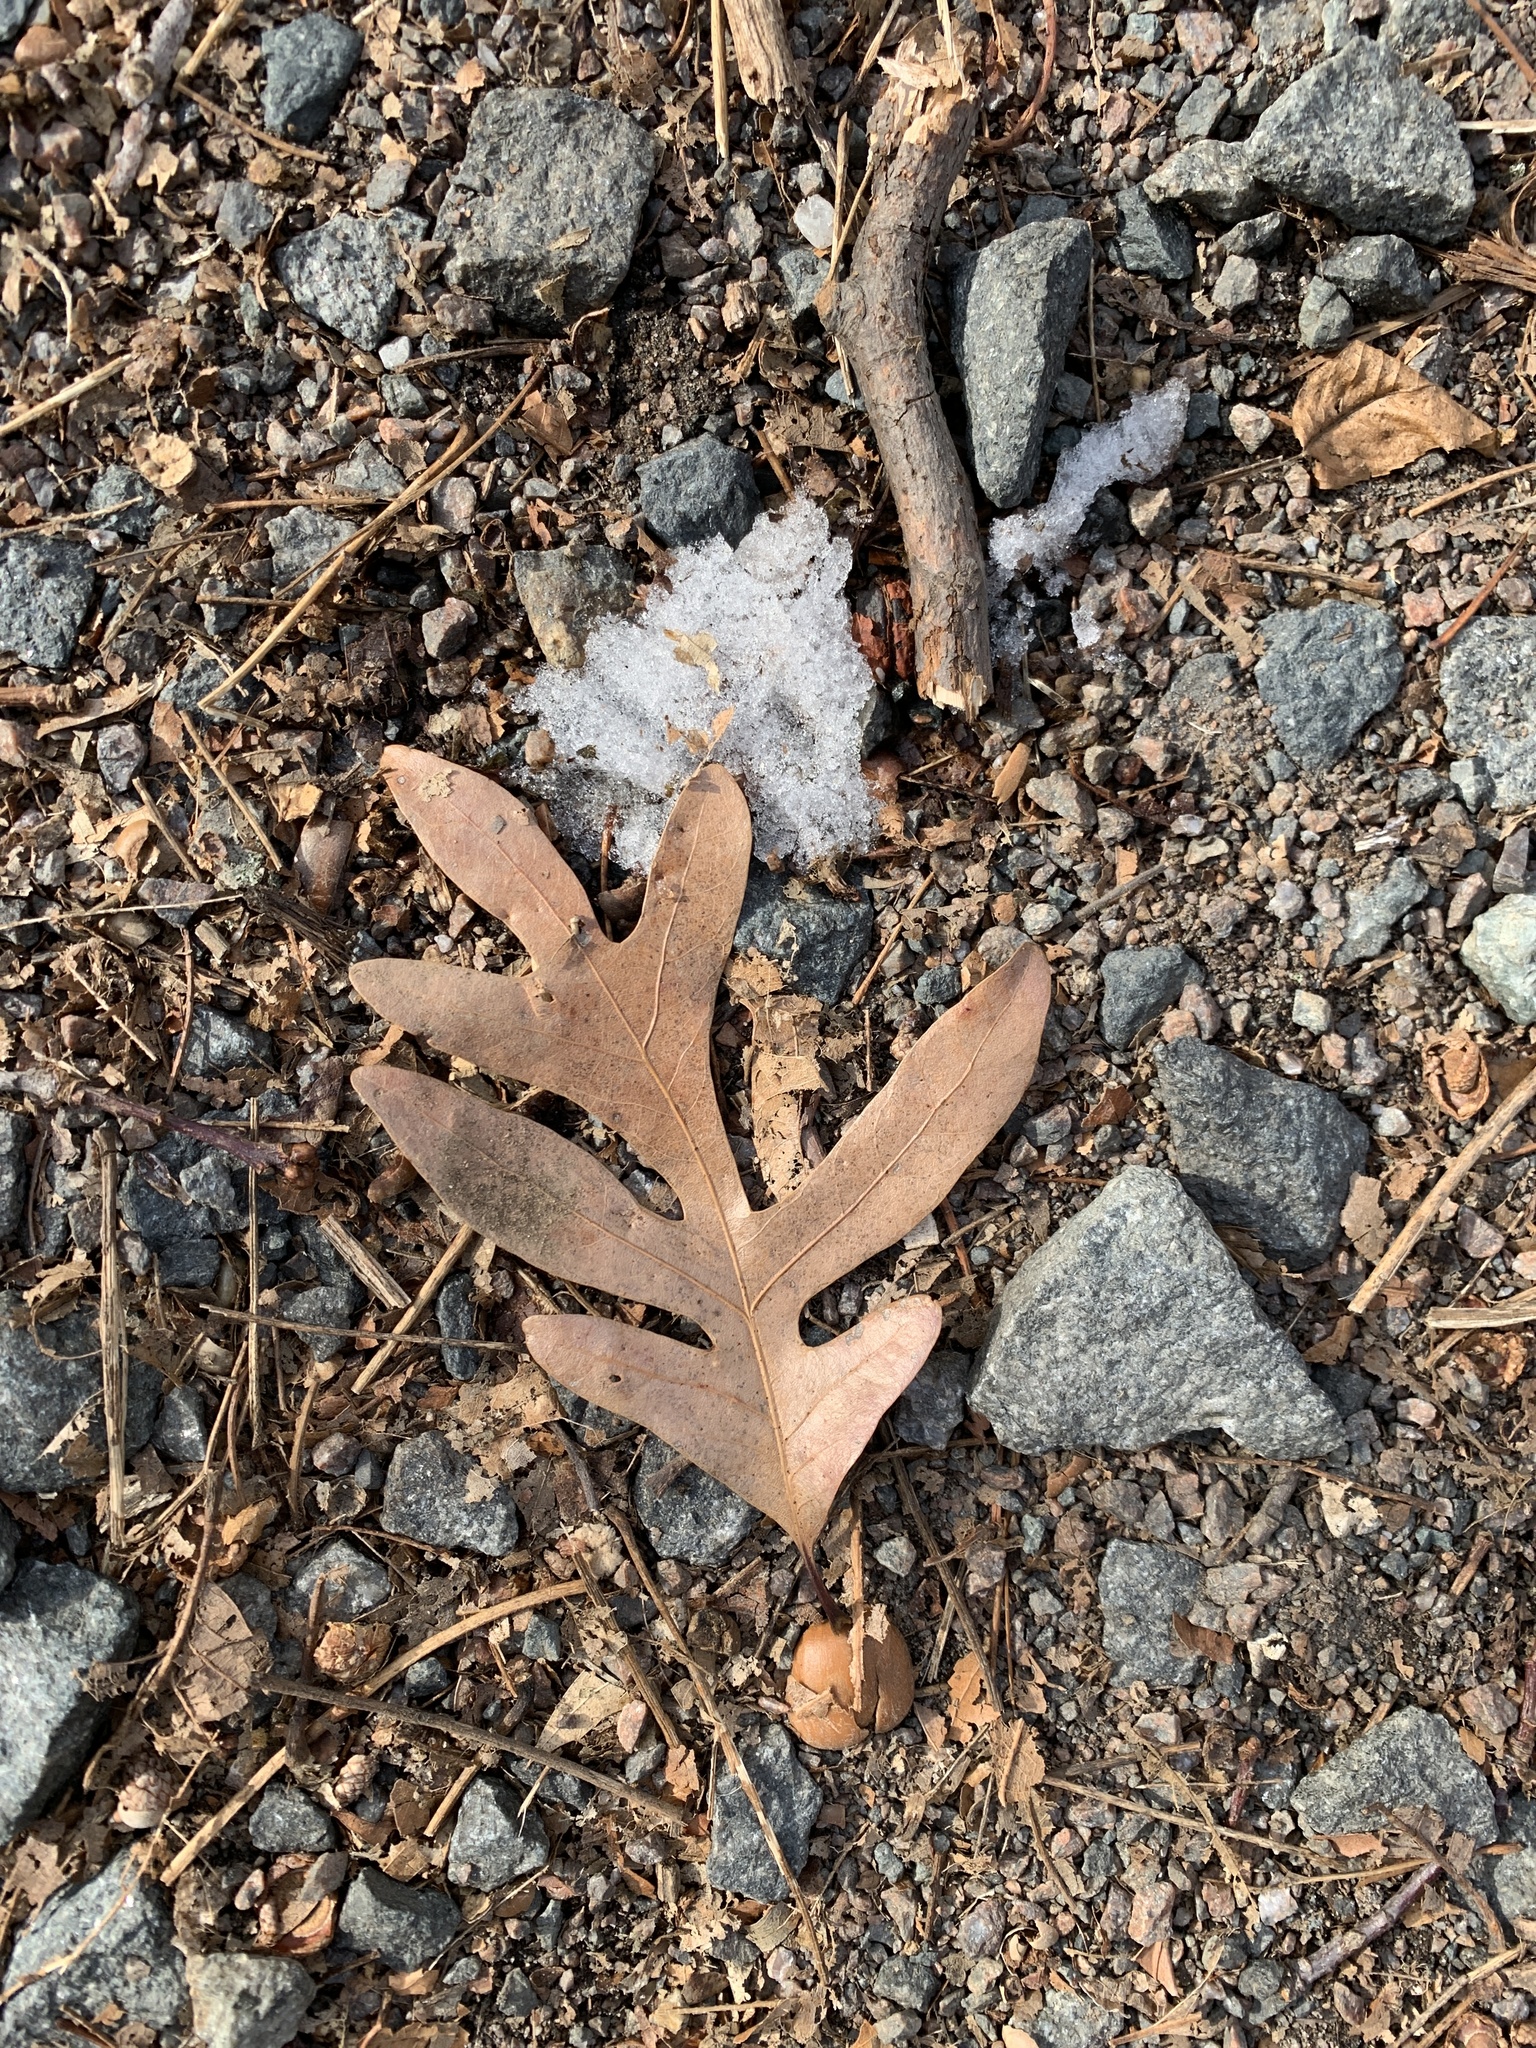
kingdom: Plantae
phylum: Tracheophyta
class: Magnoliopsida
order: Fagales
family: Fagaceae
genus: Quercus
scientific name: Quercus alba
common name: White oak
